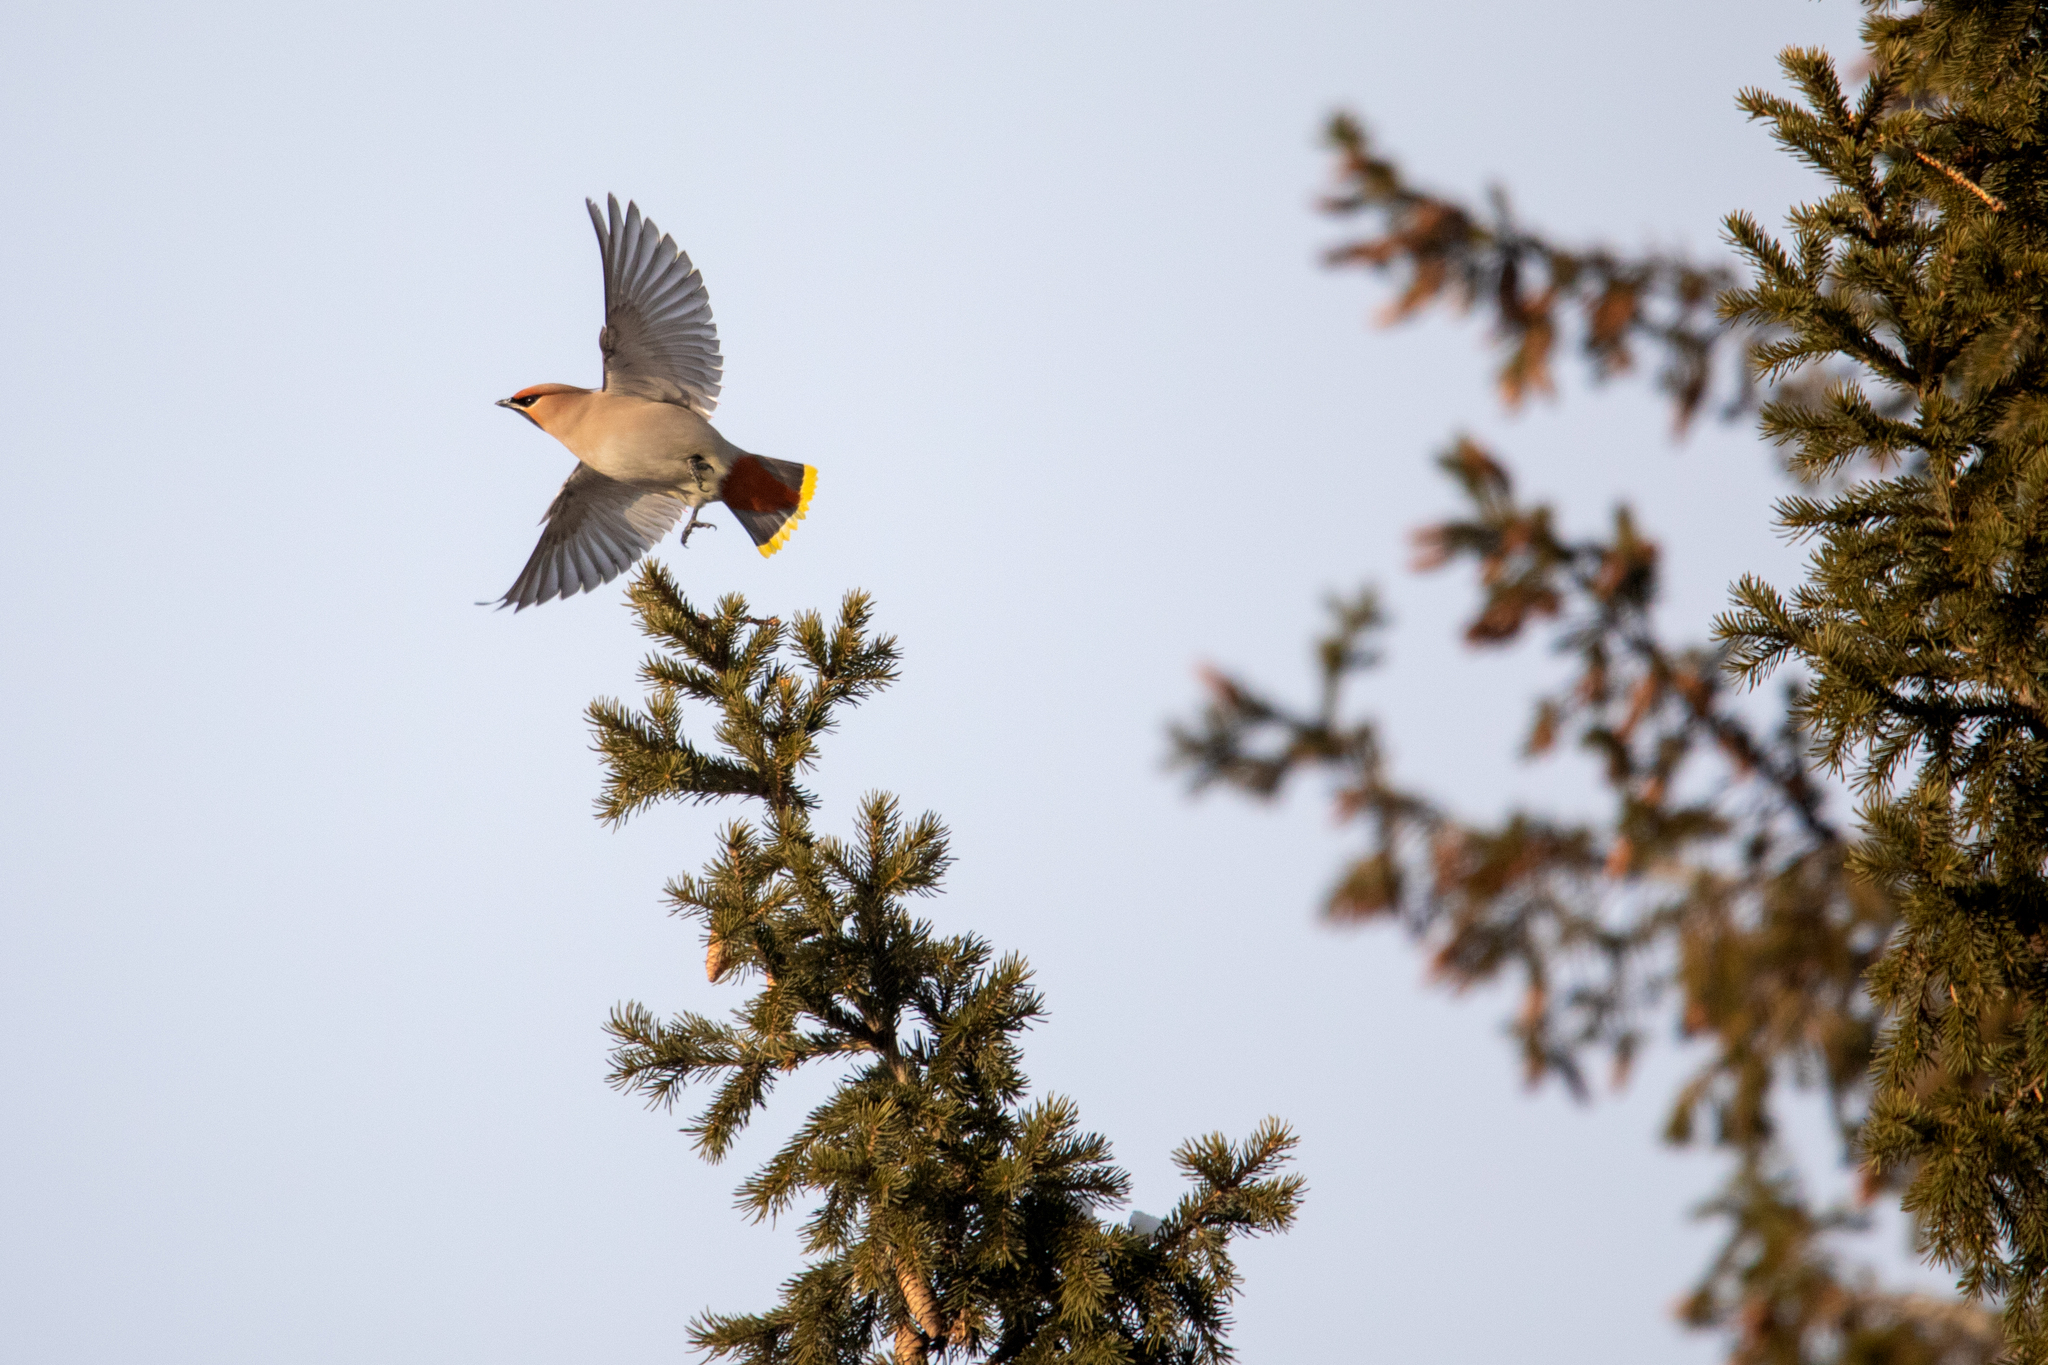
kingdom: Animalia
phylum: Chordata
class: Aves
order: Passeriformes
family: Bombycillidae
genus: Bombycilla
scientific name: Bombycilla garrulus
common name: Bohemian waxwing
